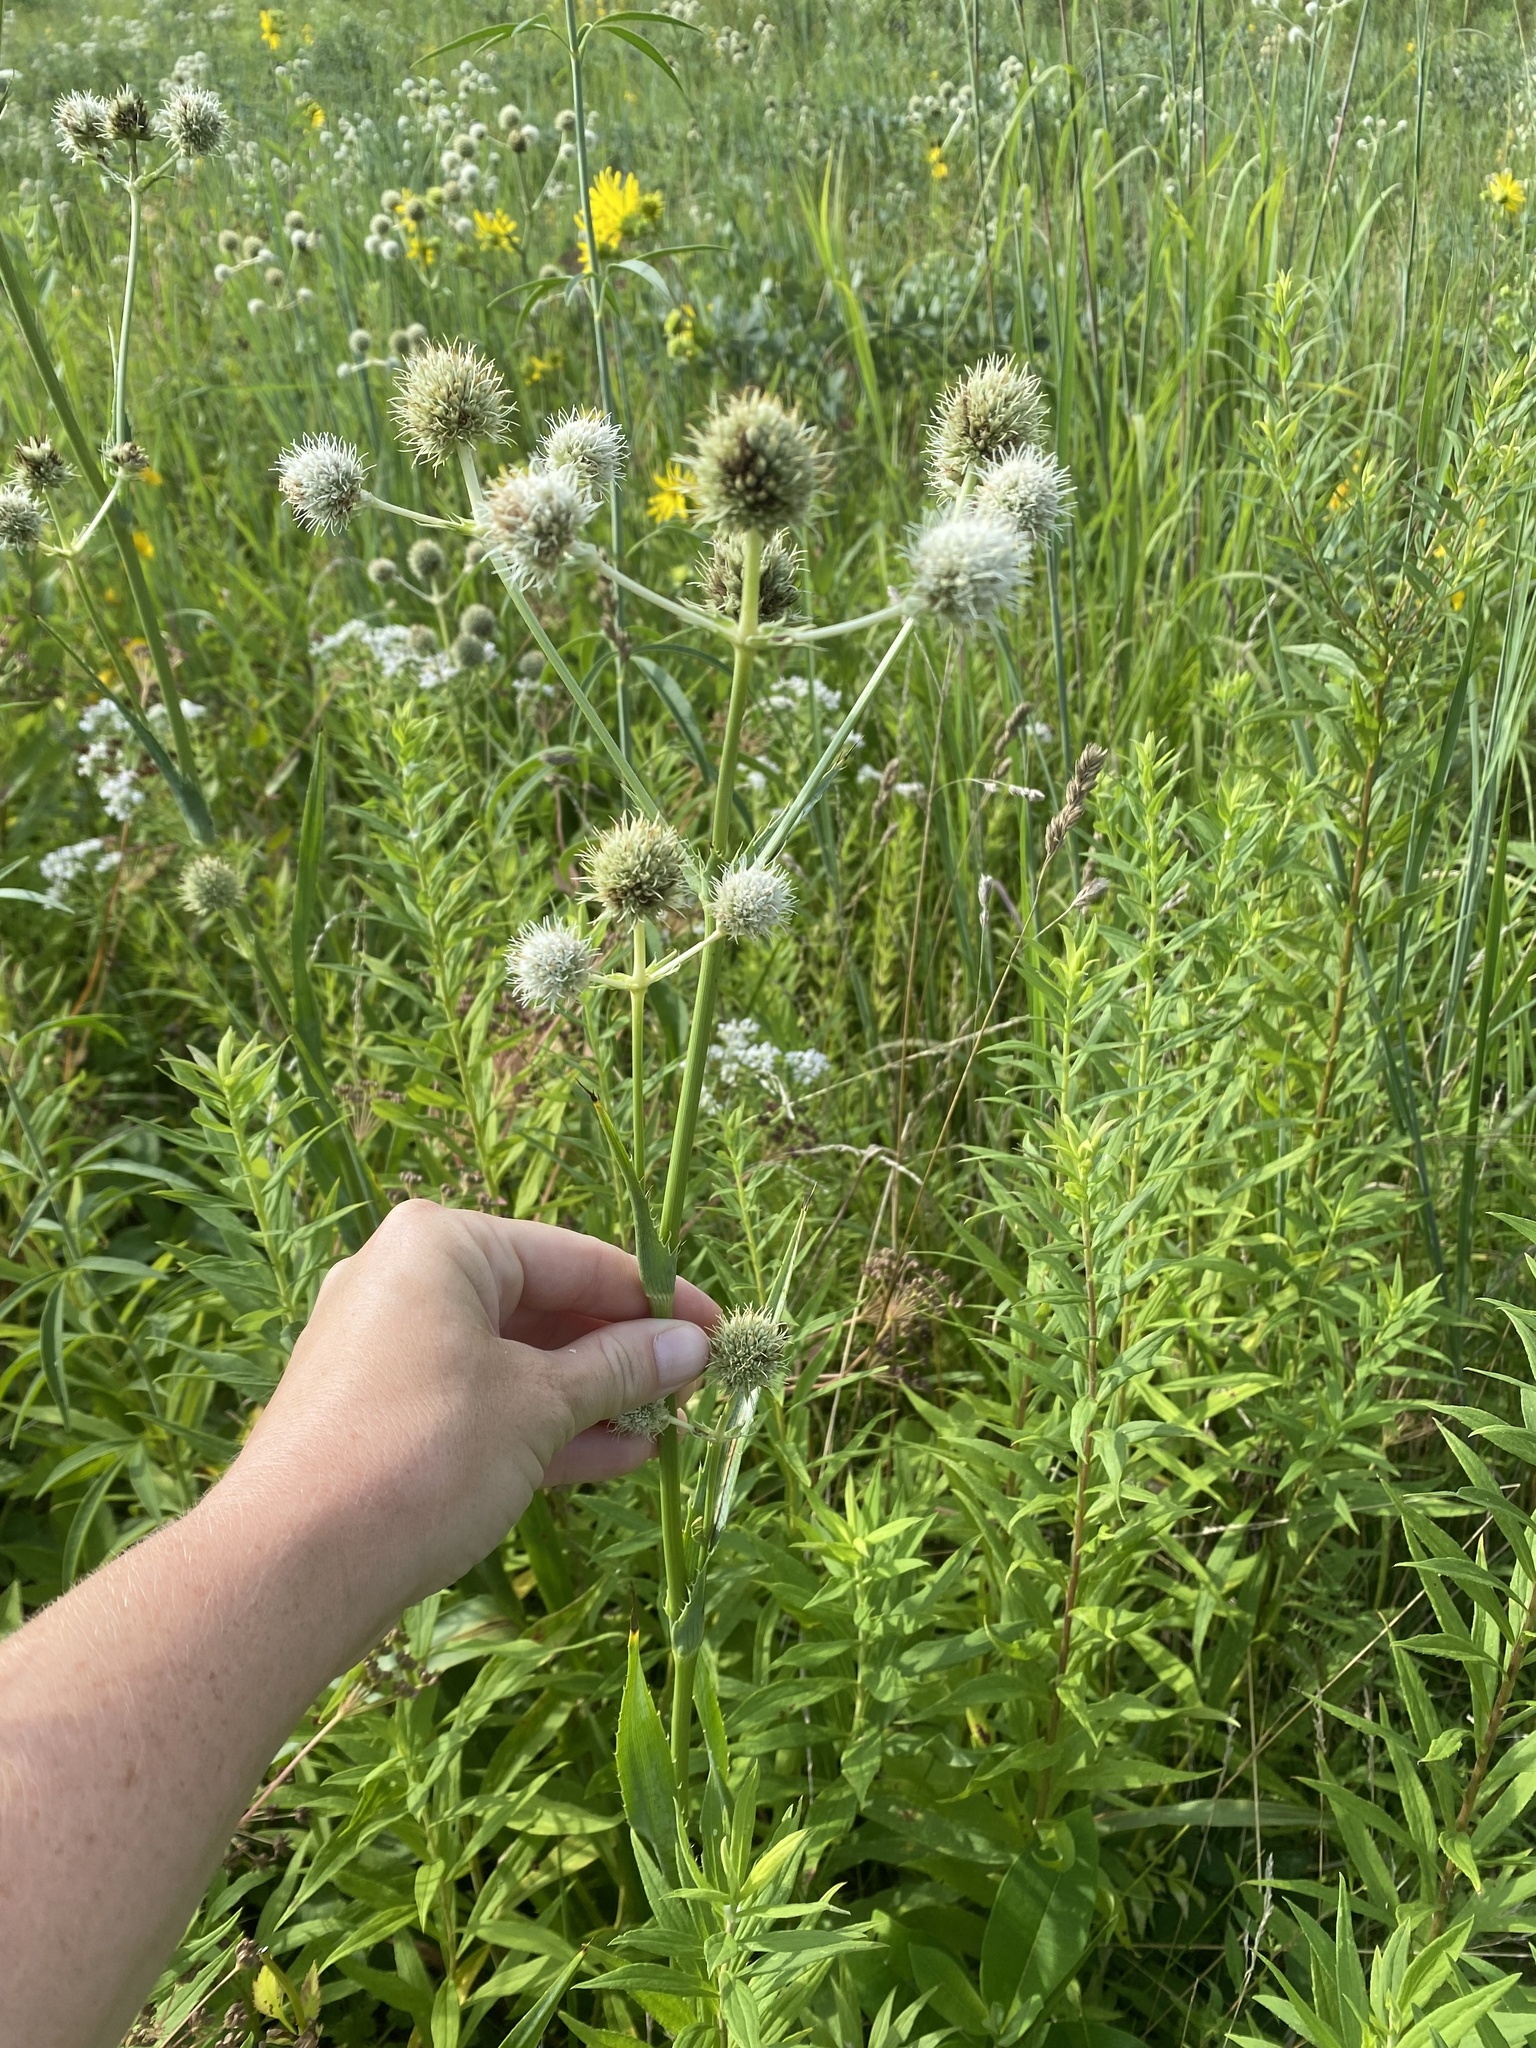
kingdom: Plantae
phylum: Tracheophyta
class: Magnoliopsida
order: Apiales
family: Apiaceae
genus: Eryngium
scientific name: Eryngium yuccifolium
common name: Button eryngo
